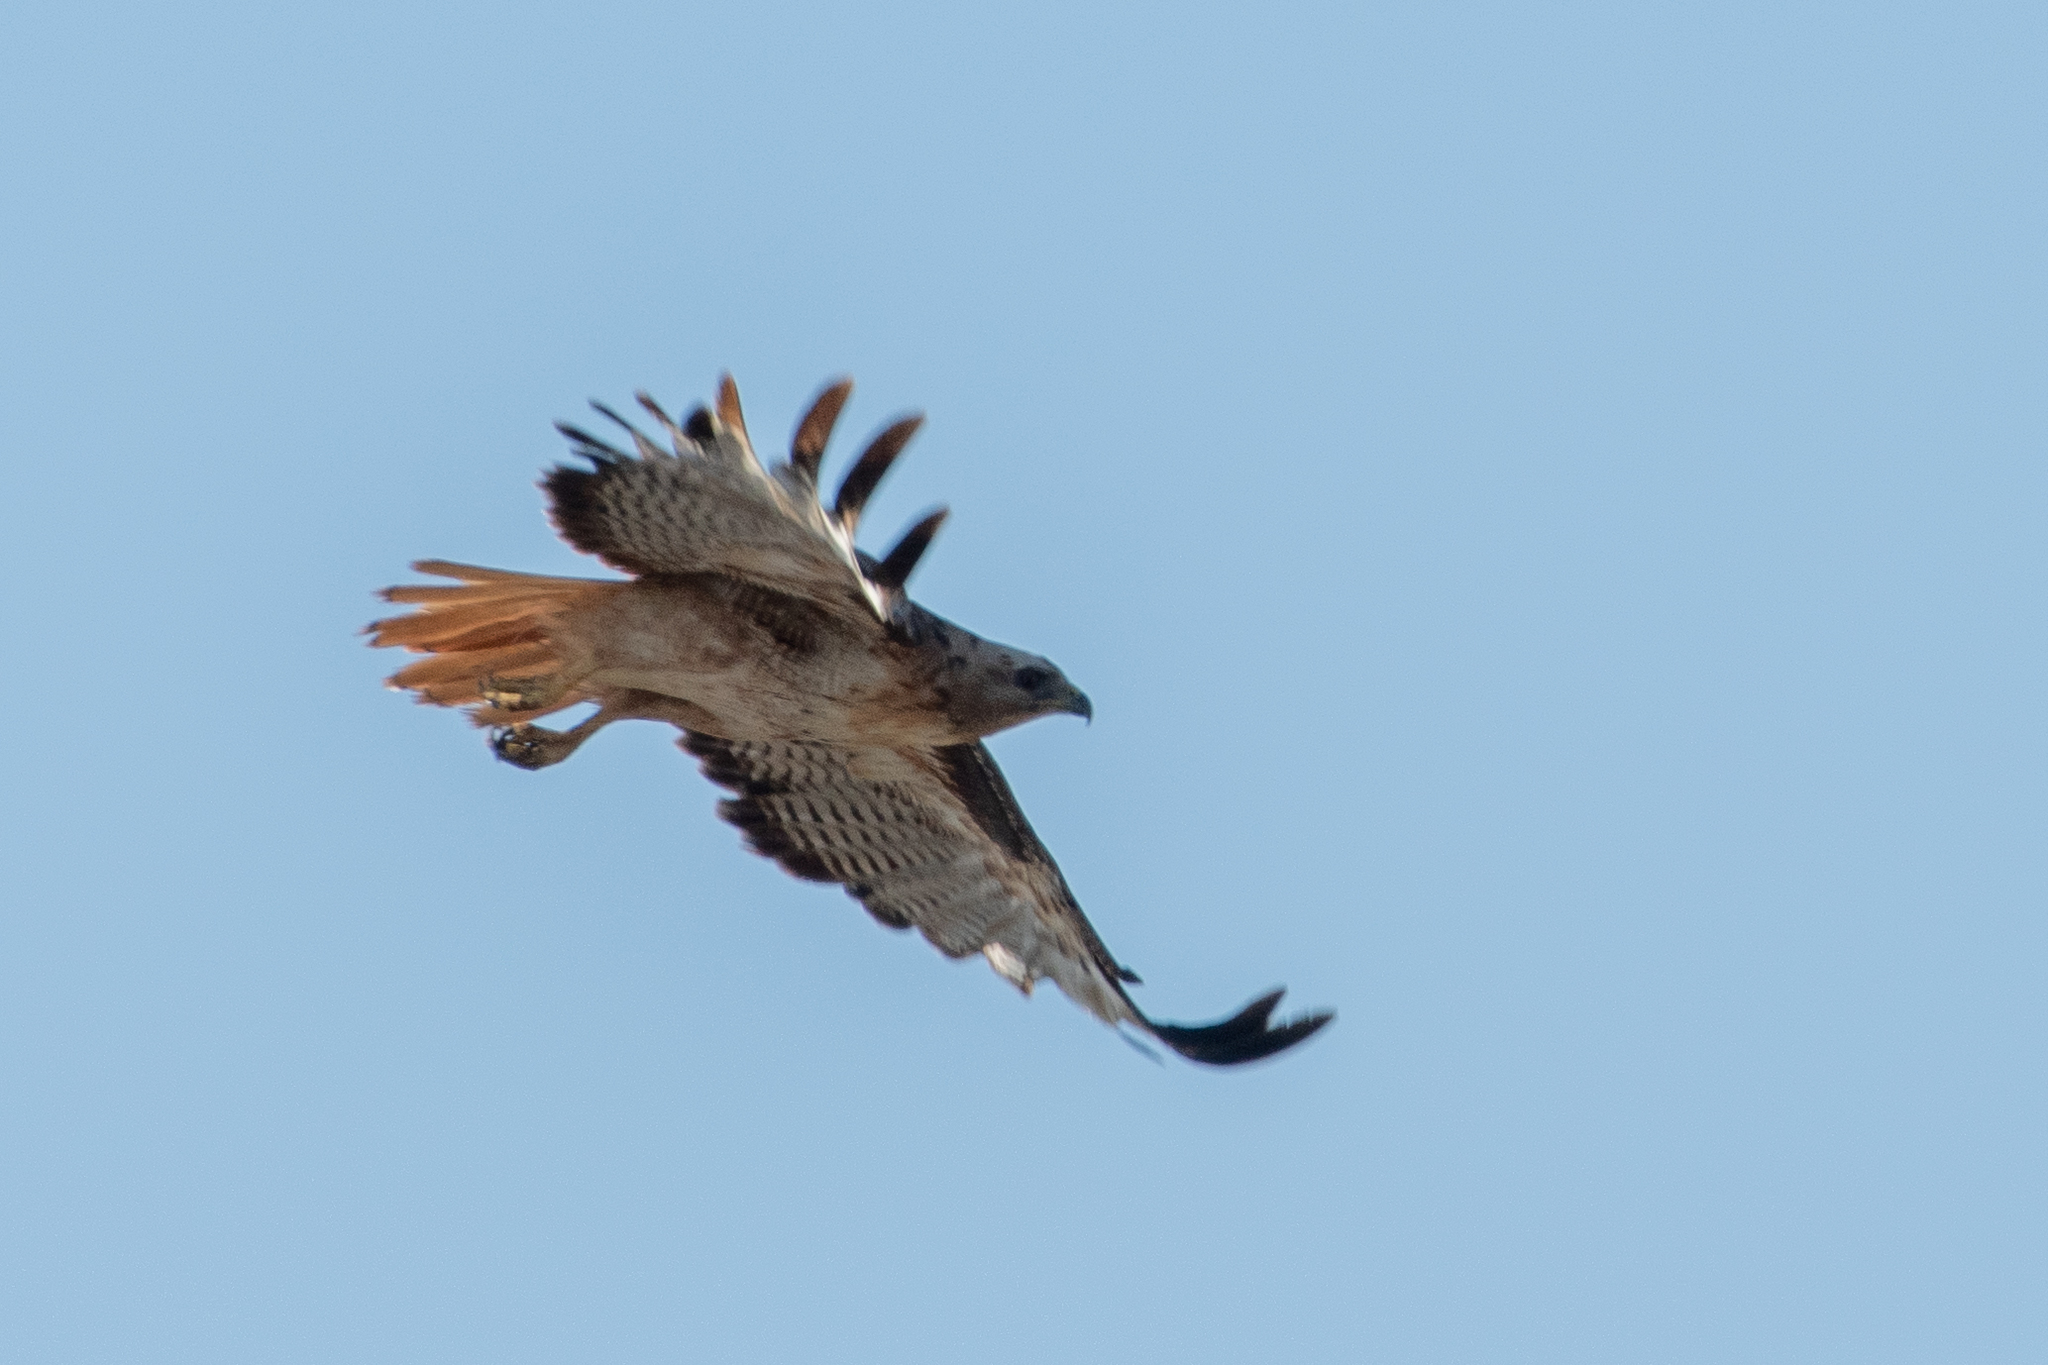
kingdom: Animalia
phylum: Chordata
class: Aves
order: Accipitriformes
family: Accipitridae
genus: Buteo
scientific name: Buteo jamaicensis
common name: Red-tailed hawk
